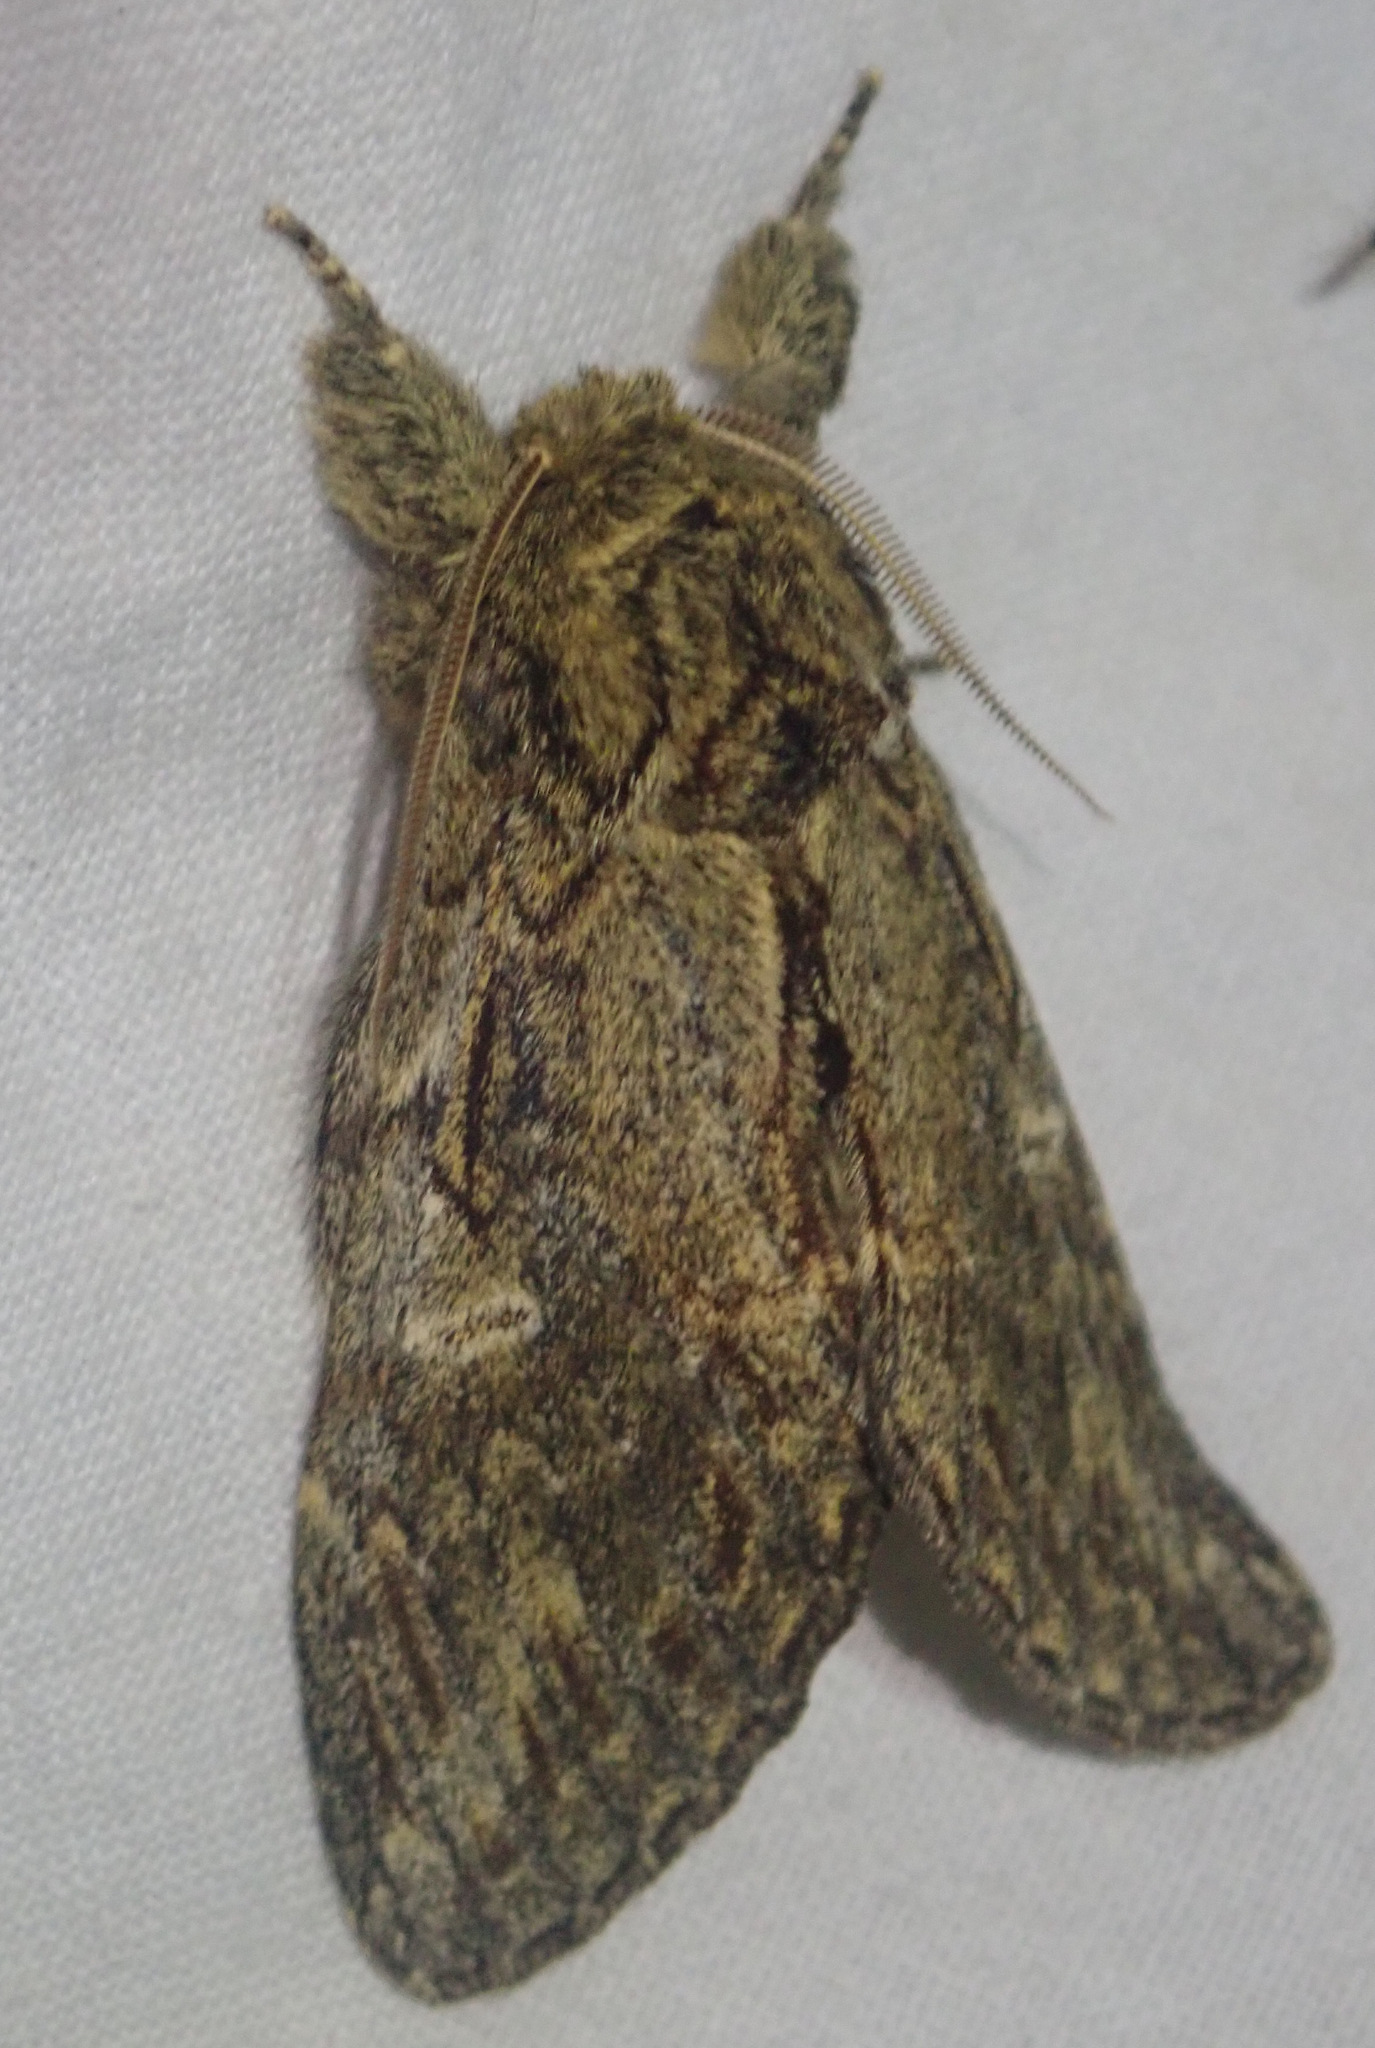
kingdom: Animalia
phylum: Arthropoda
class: Insecta
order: Lepidoptera
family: Notodontidae
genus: Peridea
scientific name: Peridea anceps
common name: Great prominent
